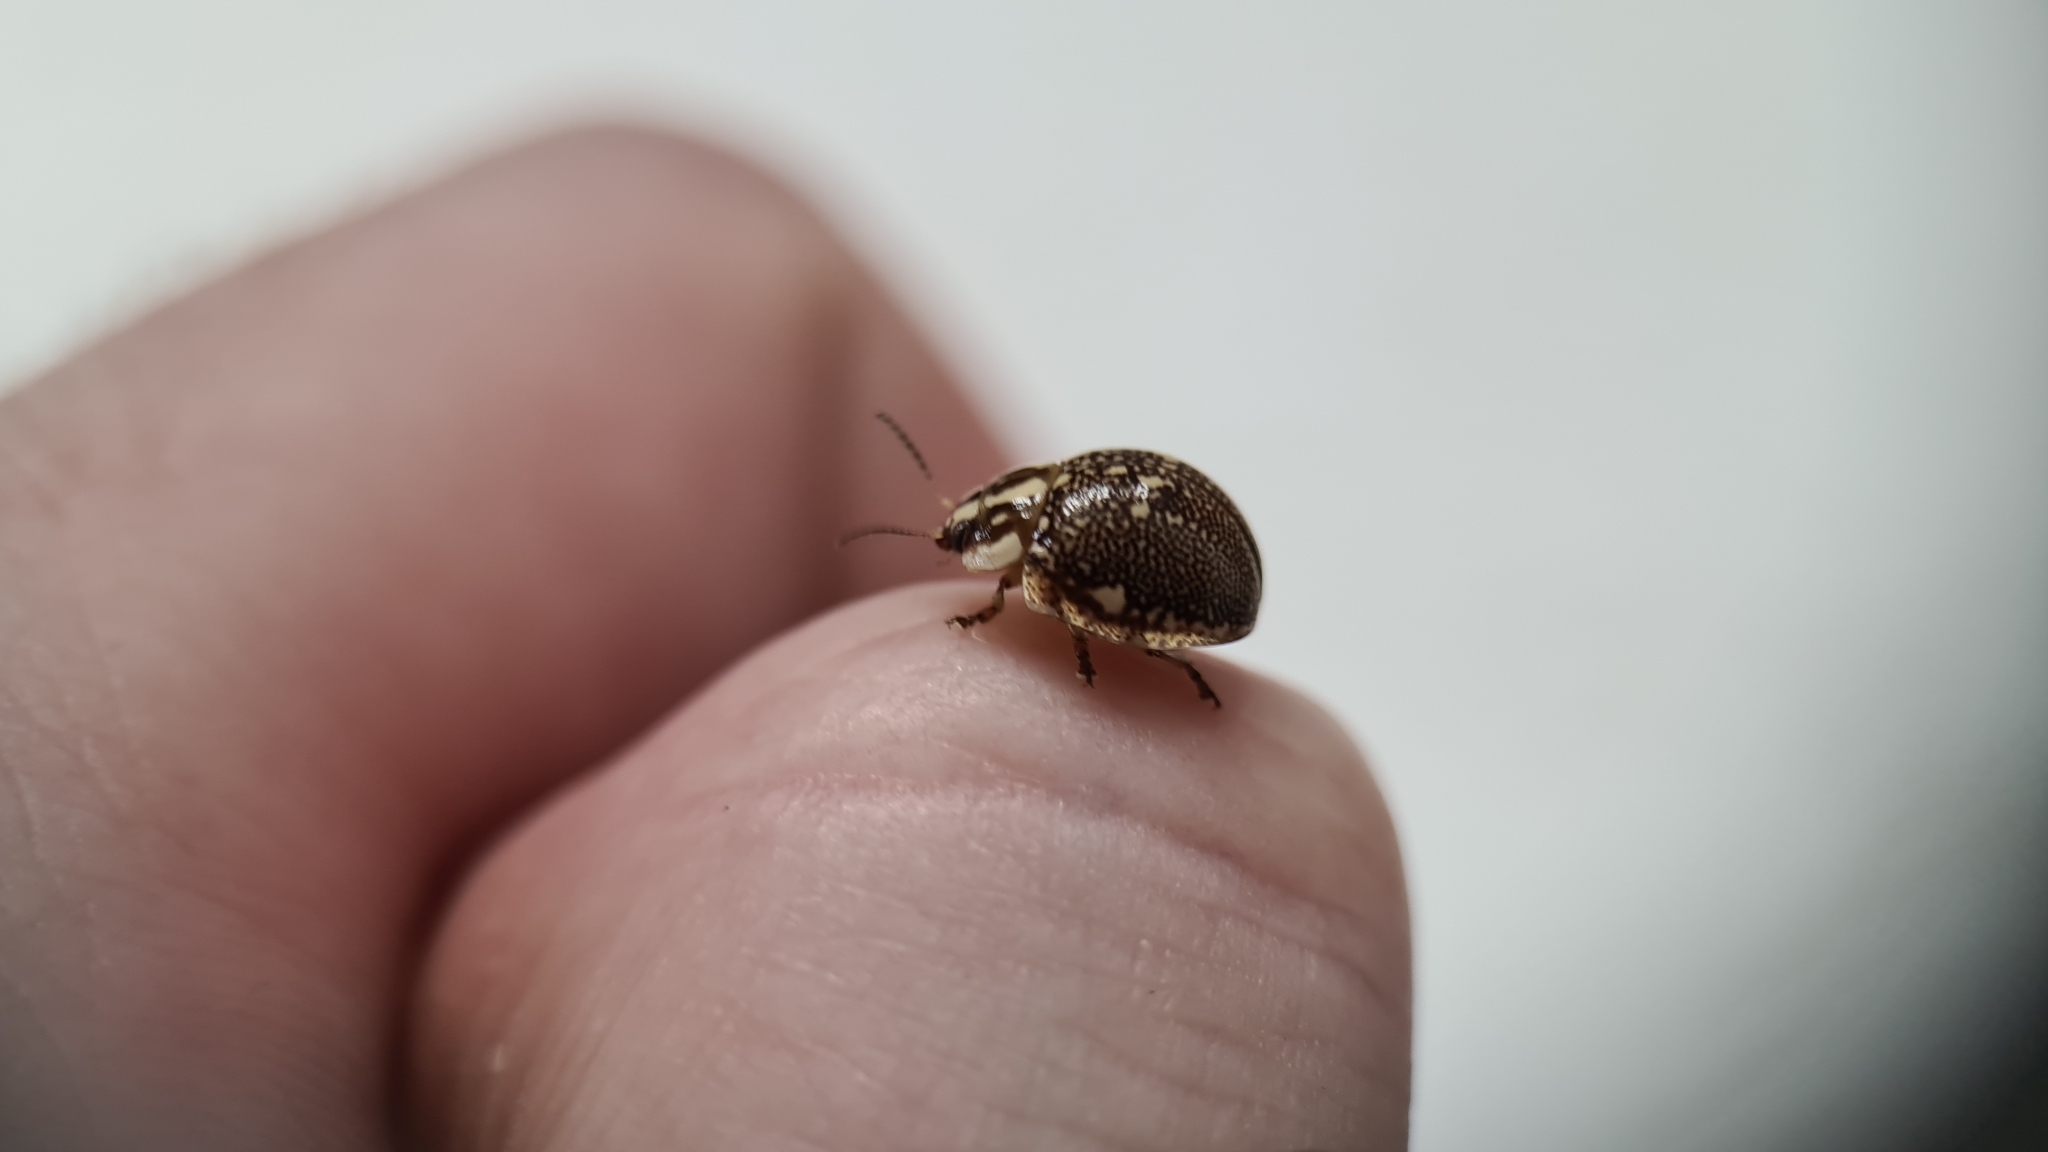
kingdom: Animalia
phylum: Arthropoda
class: Insecta
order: Coleoptera
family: Chrysomelidae
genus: Paropsis
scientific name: Paropsis sospita
